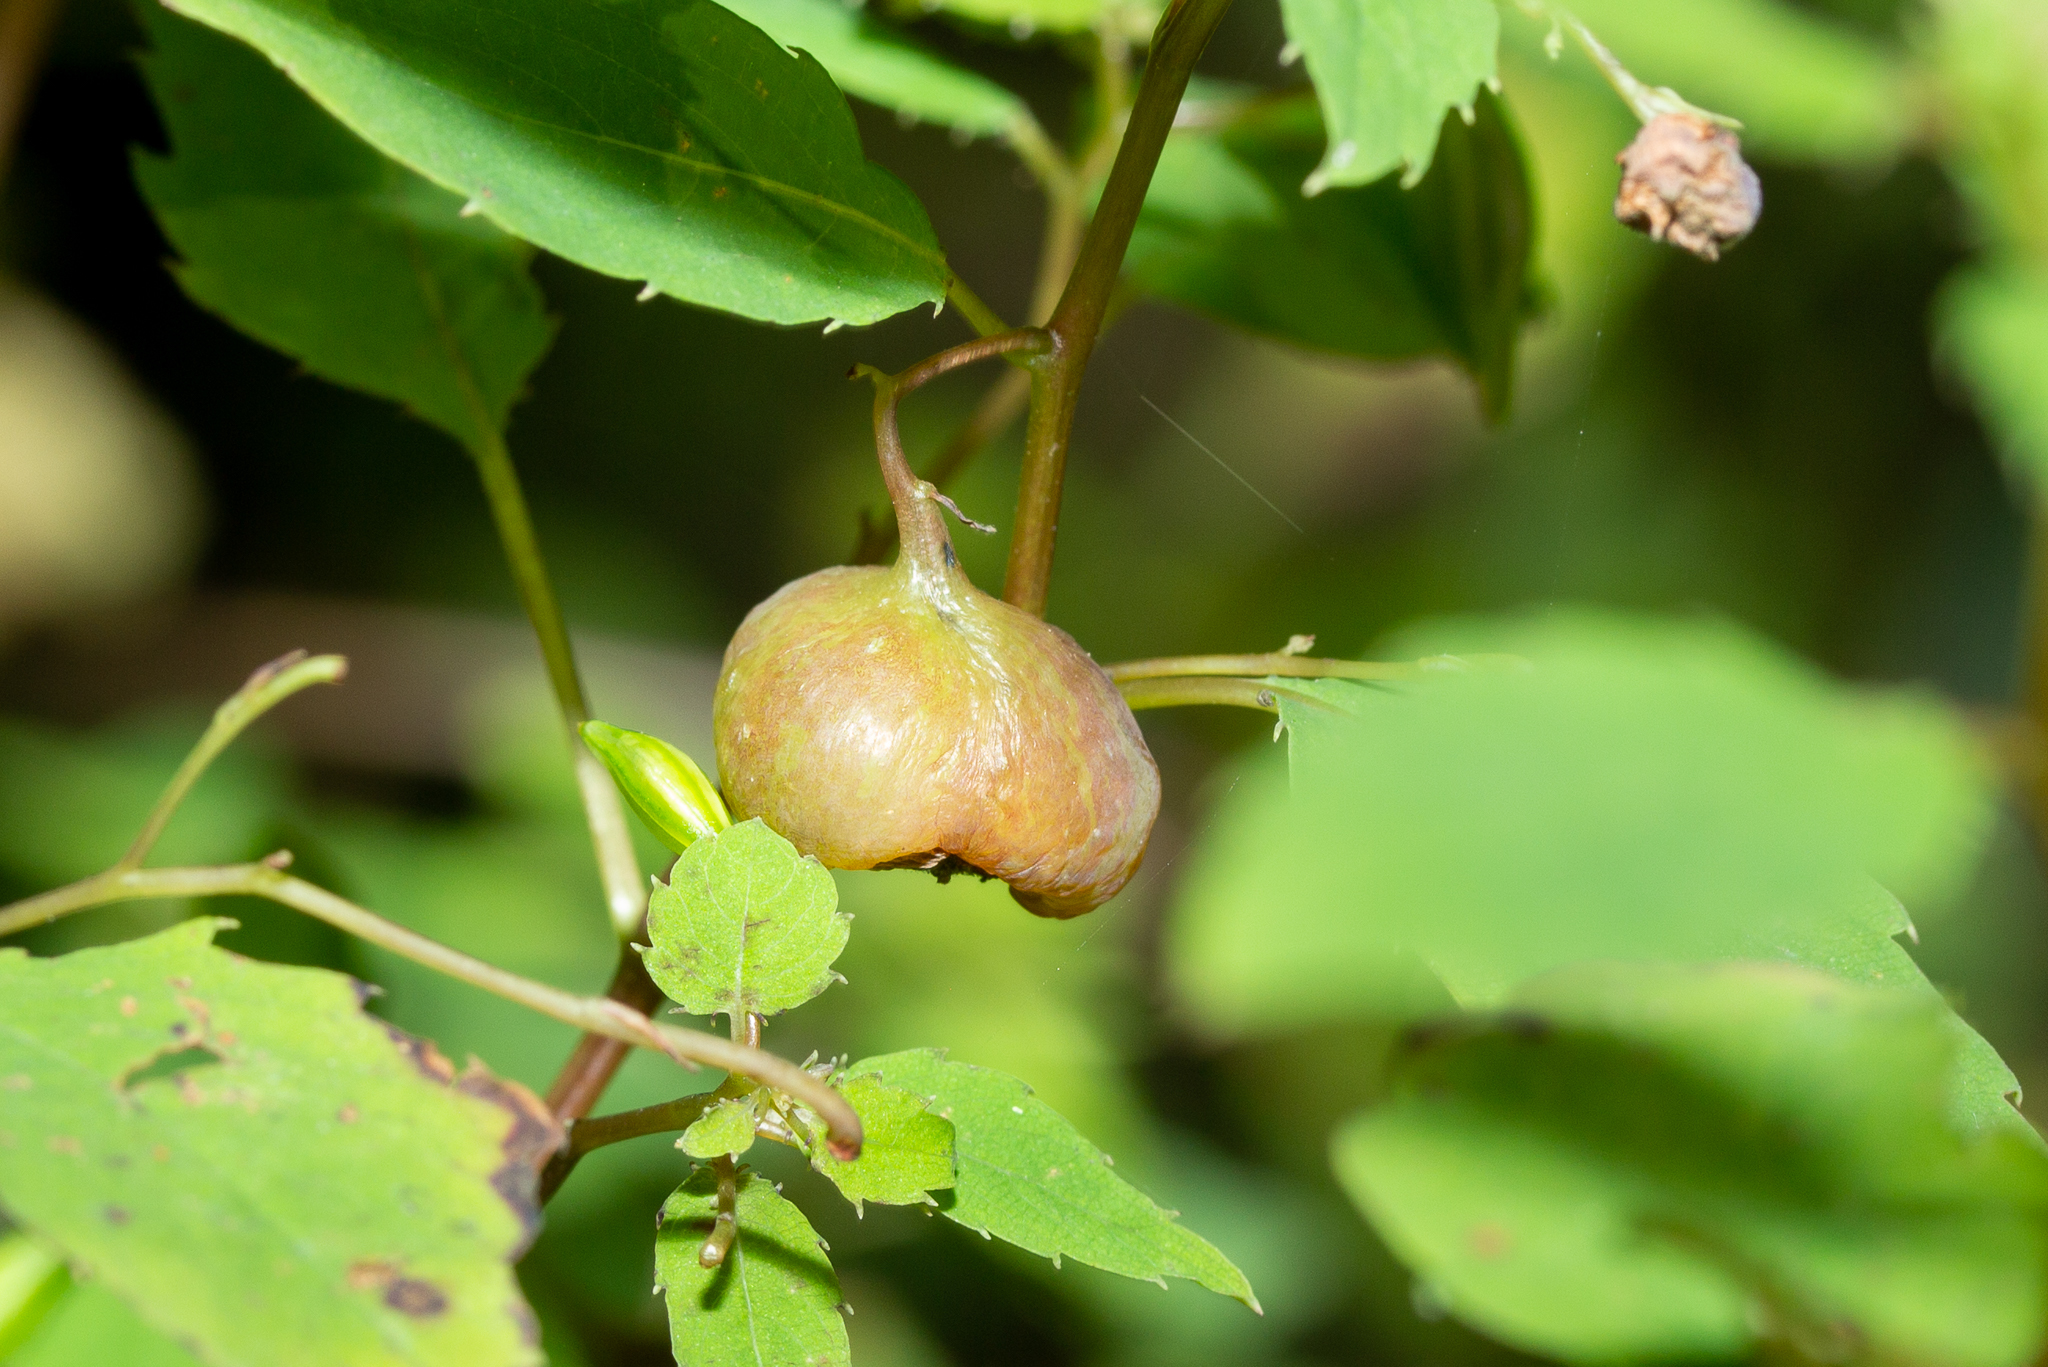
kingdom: Animalia
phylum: Arthropoda
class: Insecta
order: Diptera
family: Cecidomyiidae
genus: Schizomyia
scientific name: Schizomyia impatientis
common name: Jewelweed gall midge
